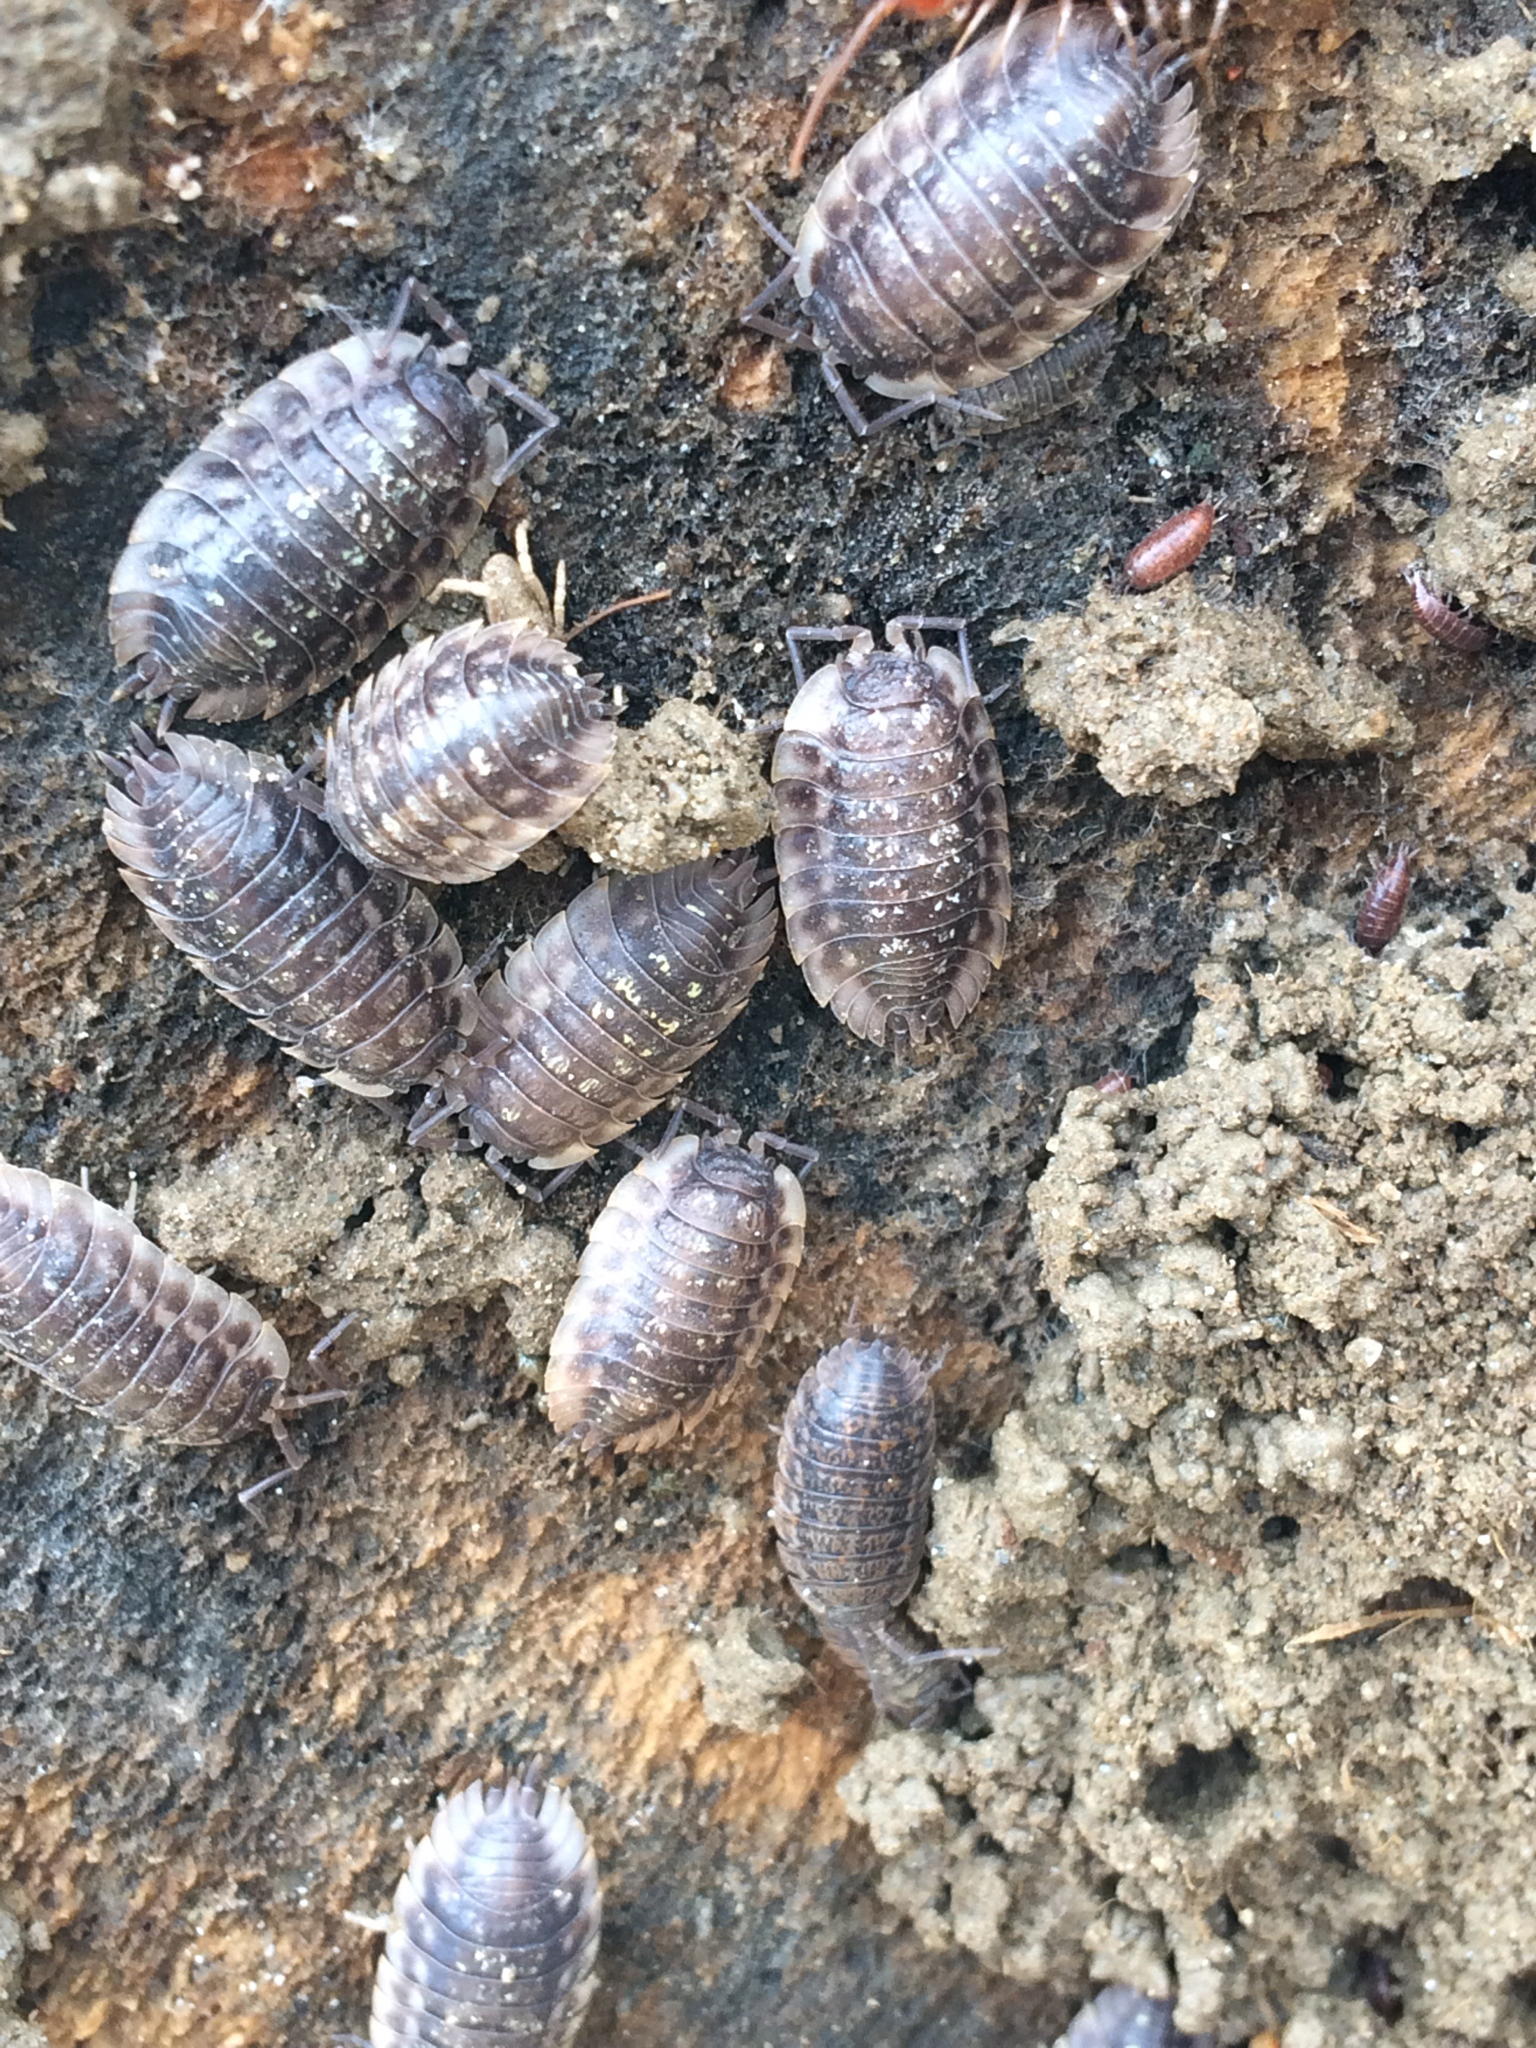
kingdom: Animalia
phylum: Arthropoda
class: Malacostraca
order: Isopoda
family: Oniscidae
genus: Oniscus
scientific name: Oniscus asellus
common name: Common shiny woodlouse
